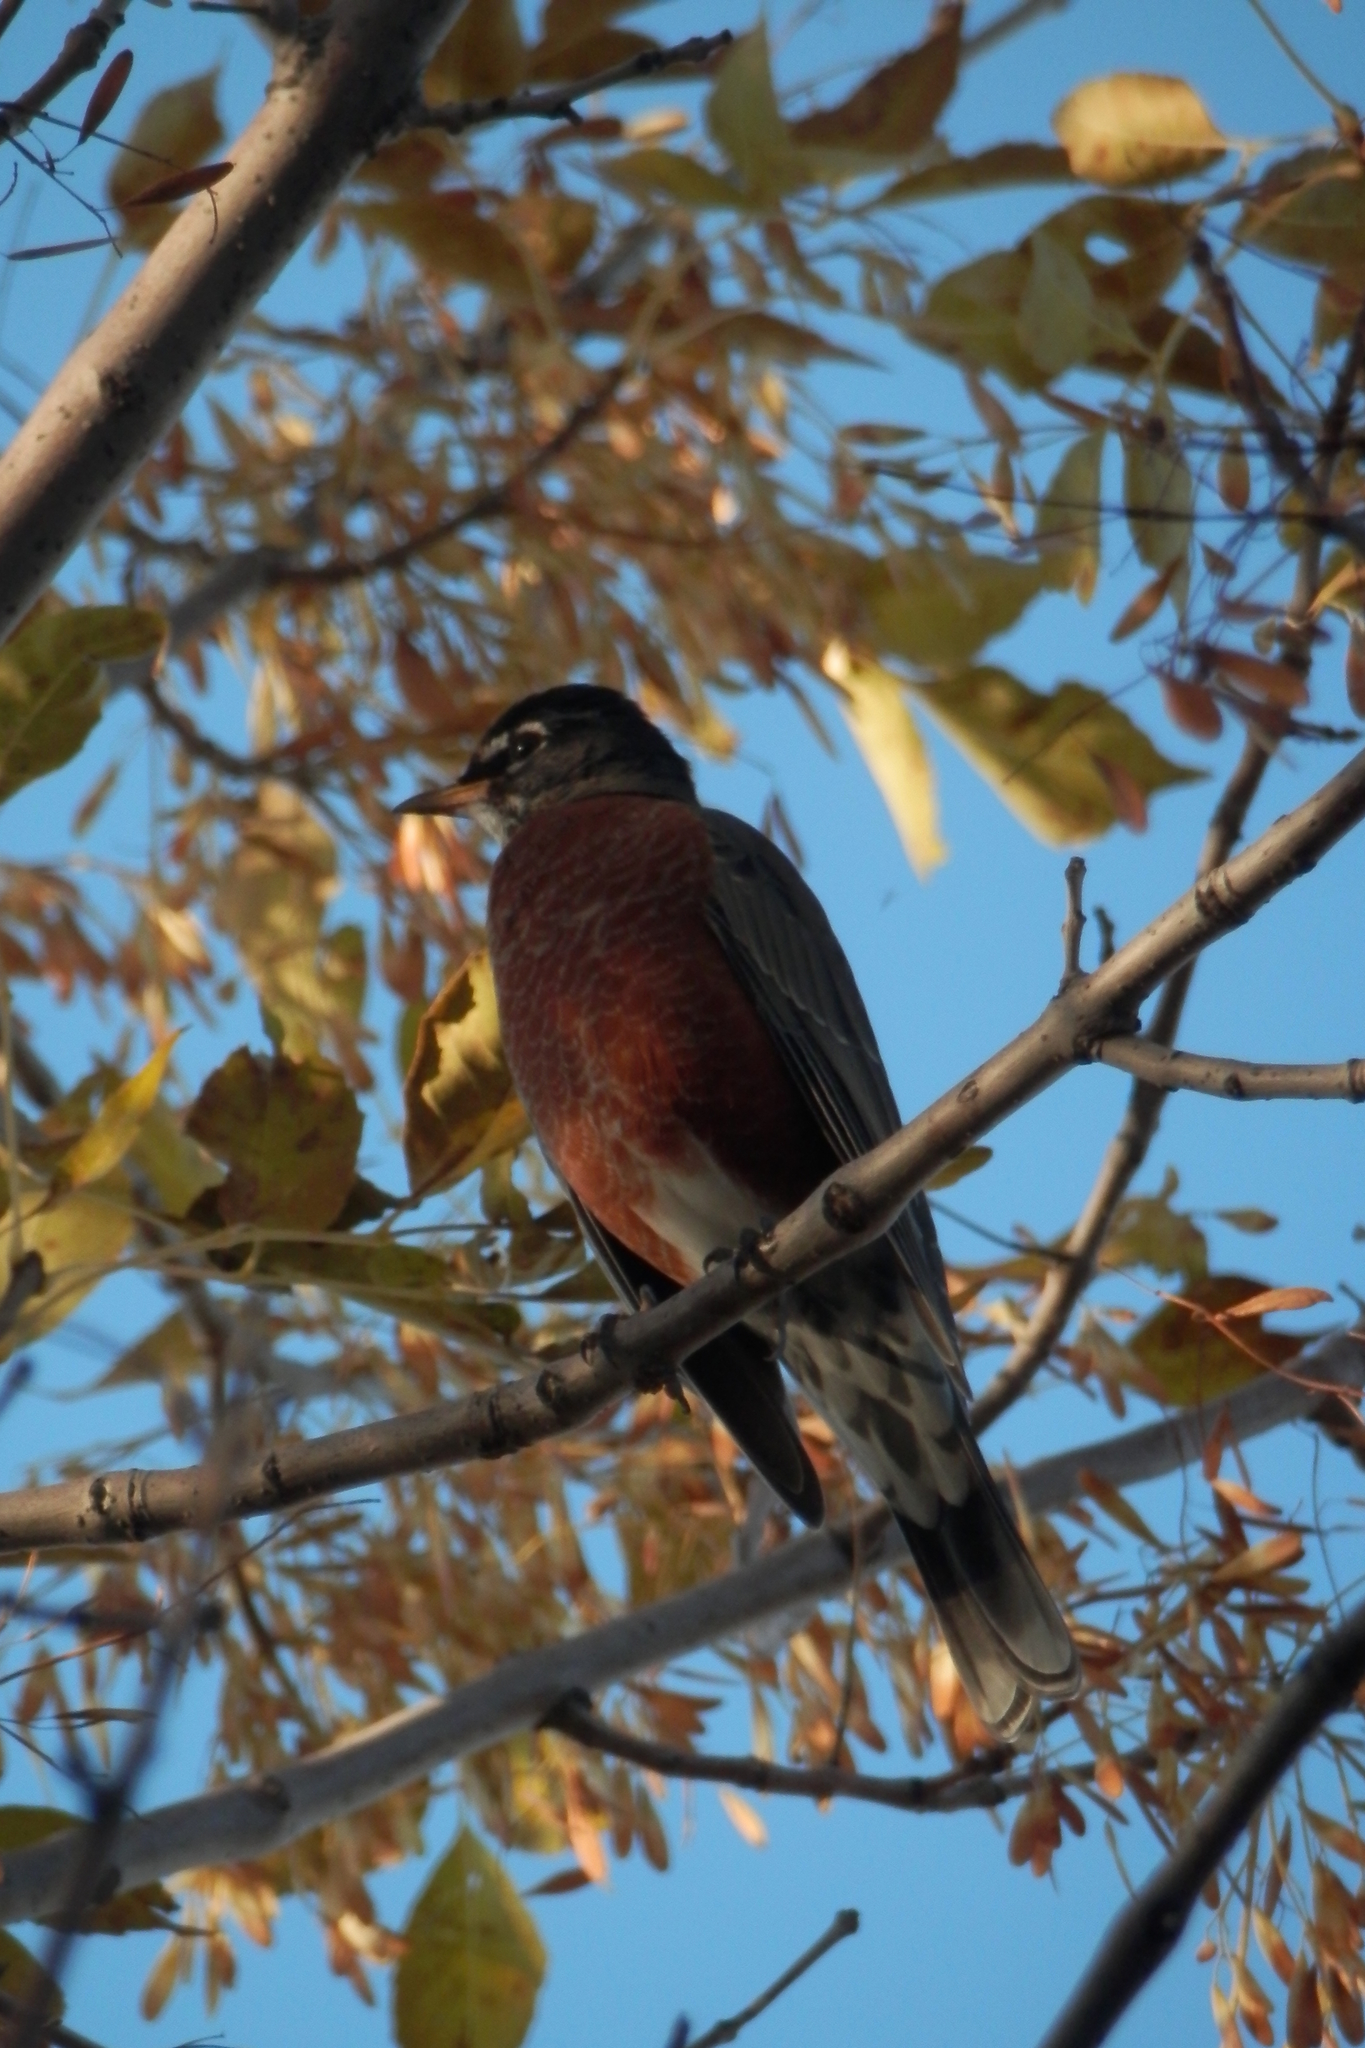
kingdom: Animalia
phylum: Chordata
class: Aves
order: Passeriformes
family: Turdidae
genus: Turdus
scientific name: Turdus migratorius
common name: American robin
